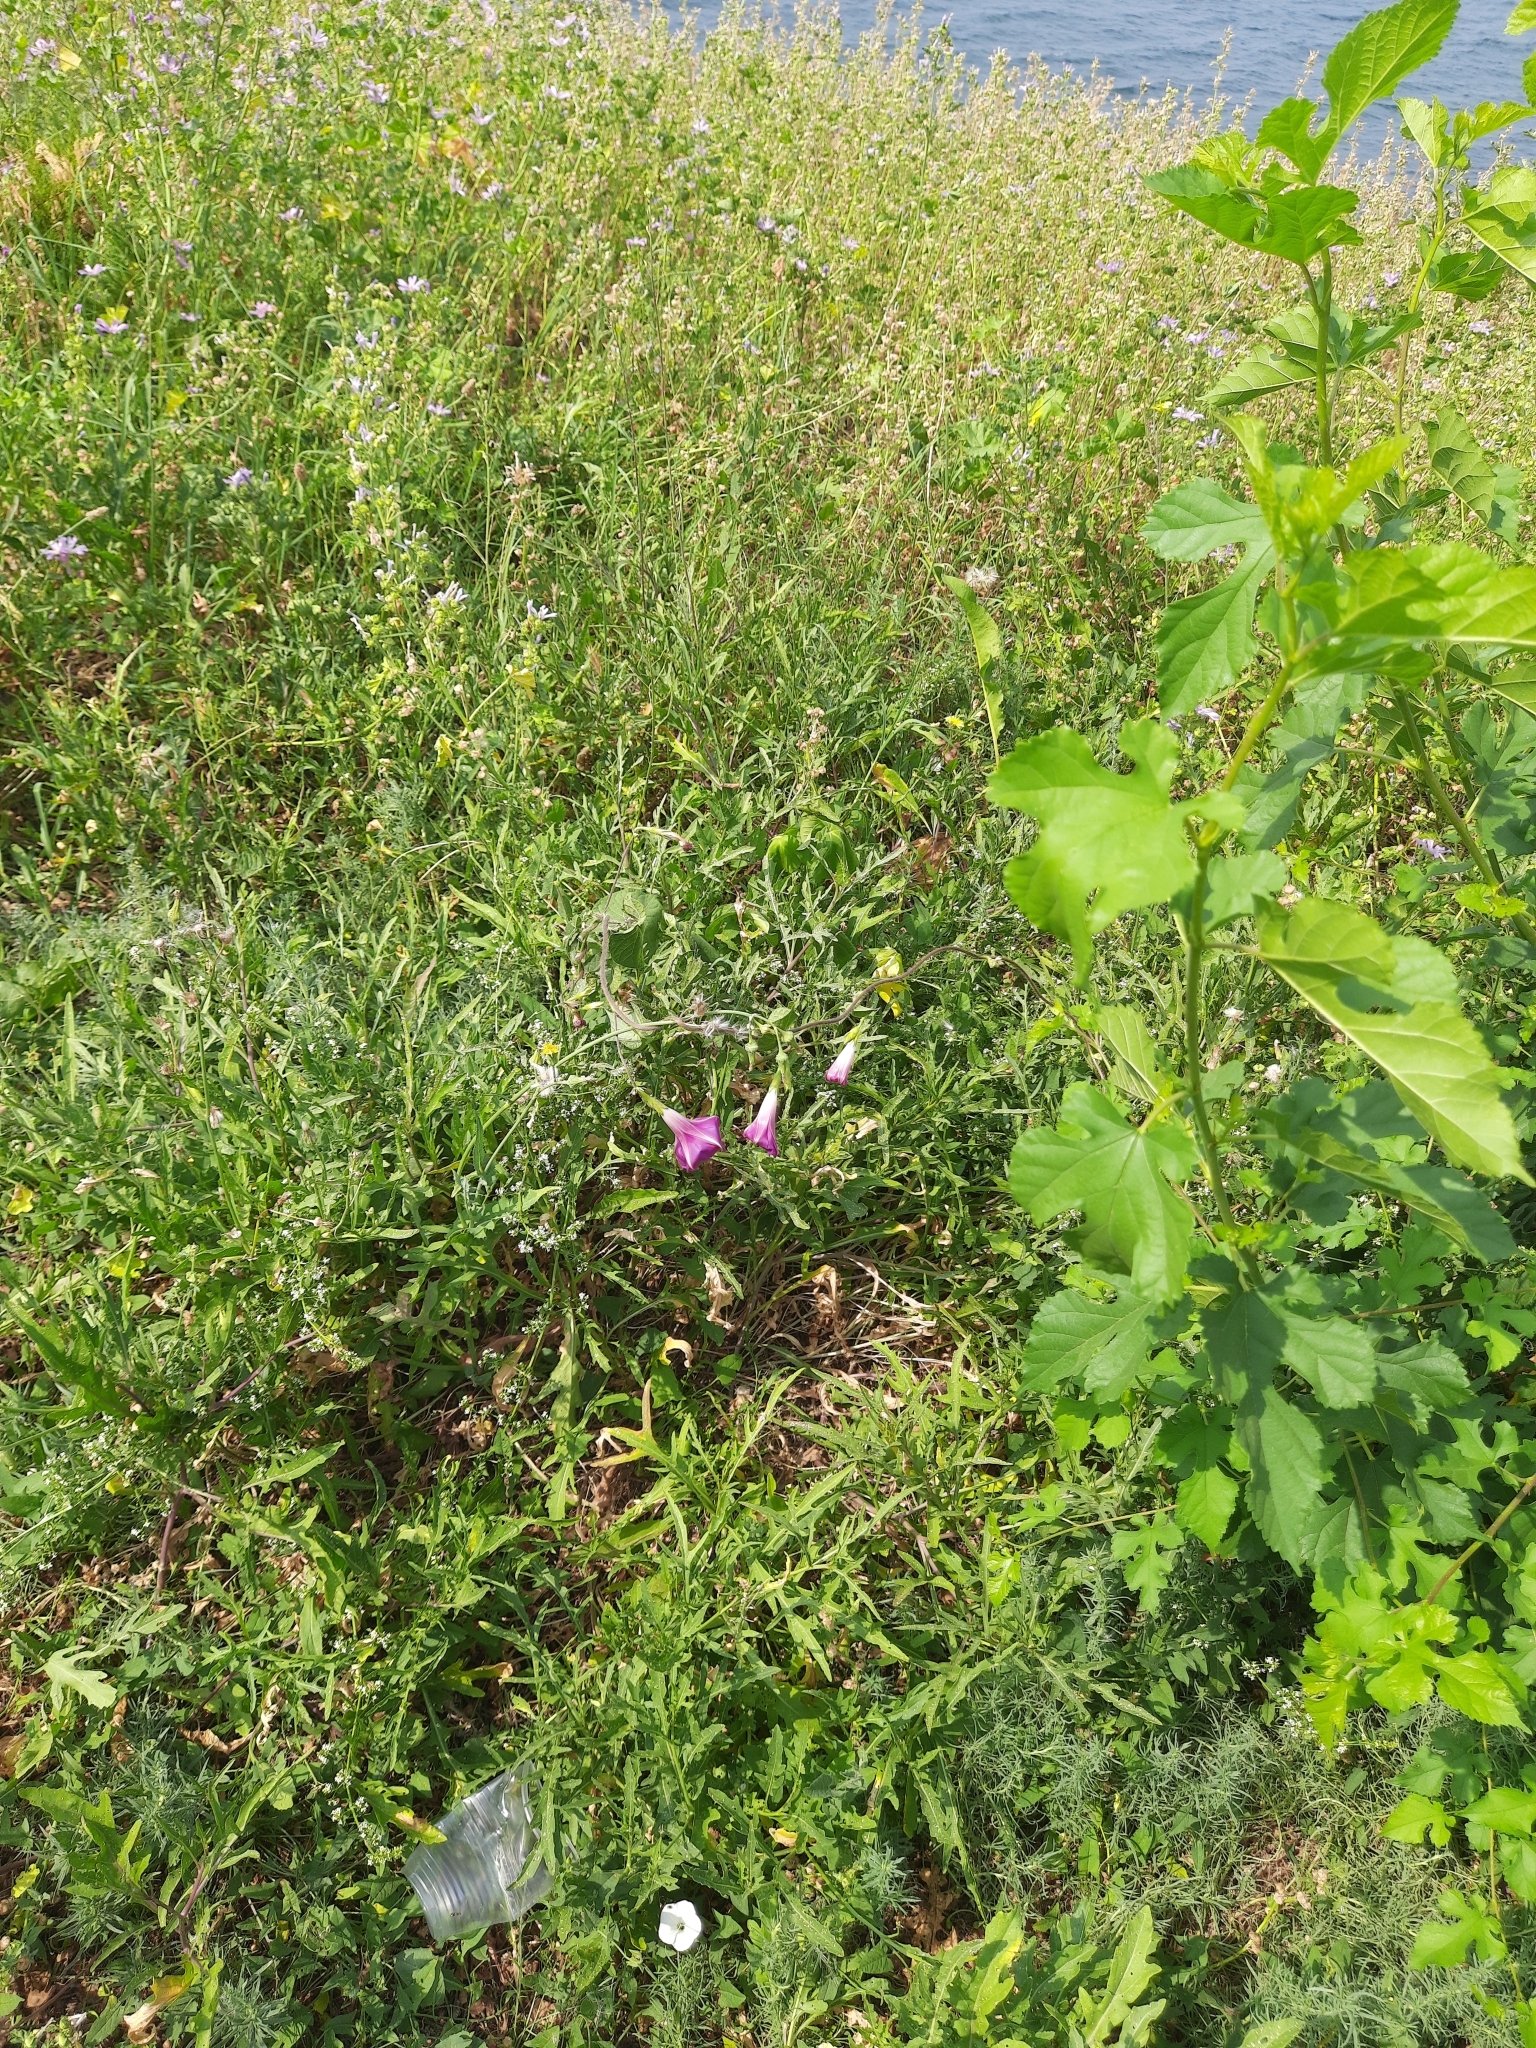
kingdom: Plantae
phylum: Tracheophyta
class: Magnoliopsida
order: Rosales
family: Moraceae
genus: Morus
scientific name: Morus alba
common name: White mulberry
